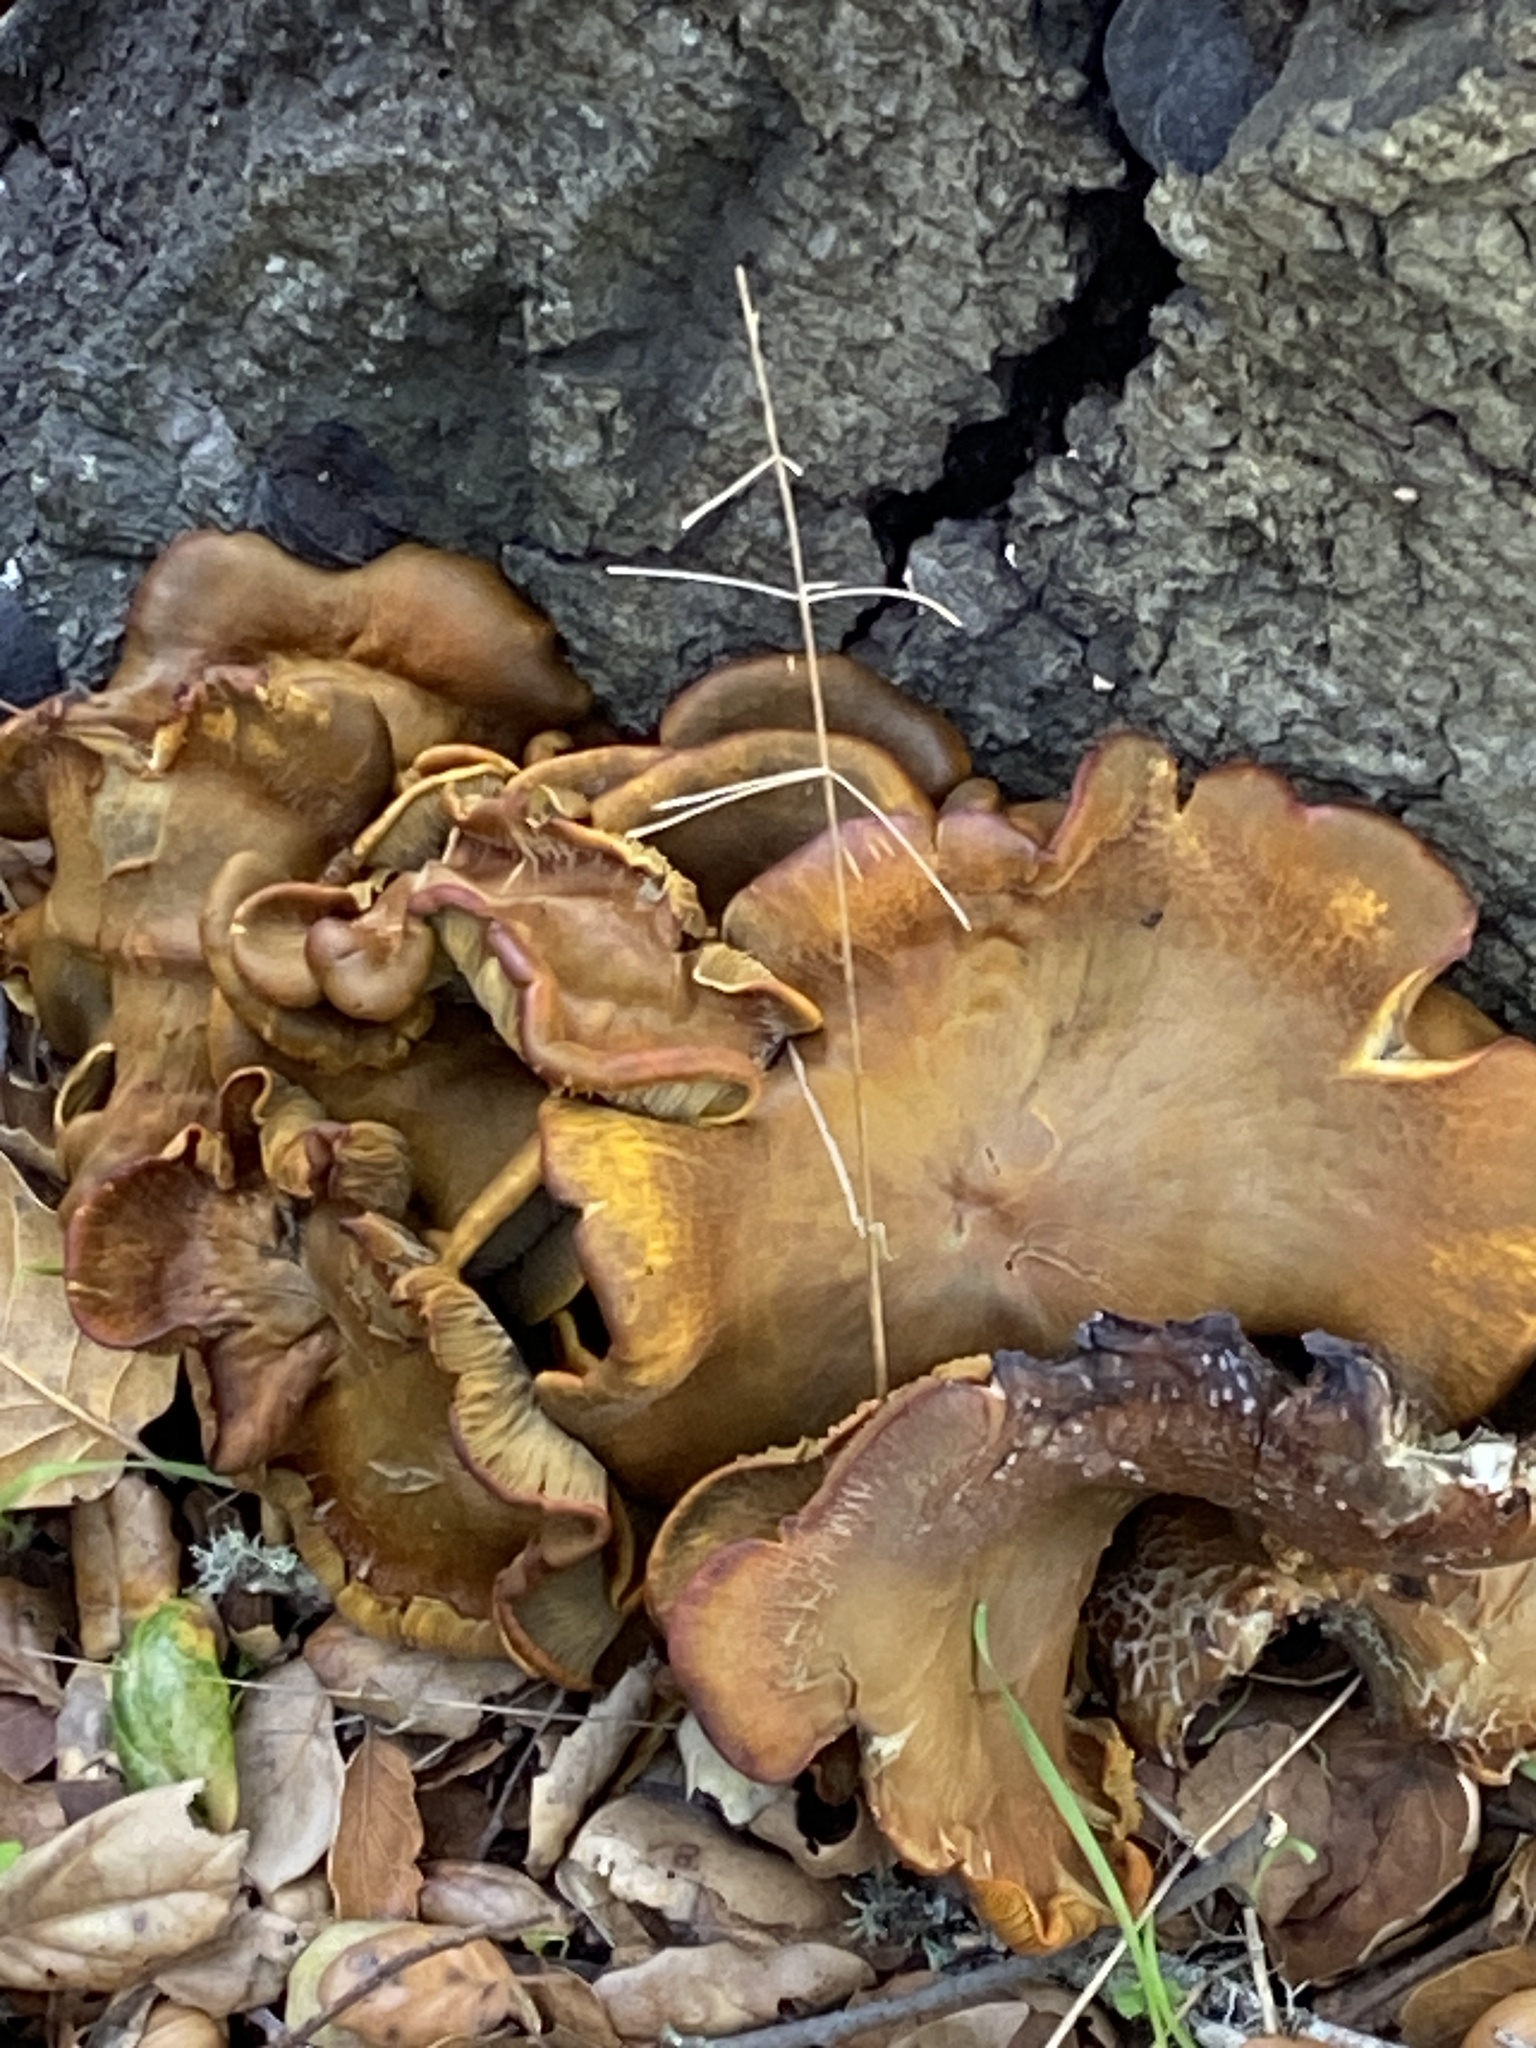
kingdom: Fungi
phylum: Basidiomycota
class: Agaricomycetes
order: Agaricales
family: Omphalotaceae
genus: Omphalotus
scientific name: Omphalotus olivascens
